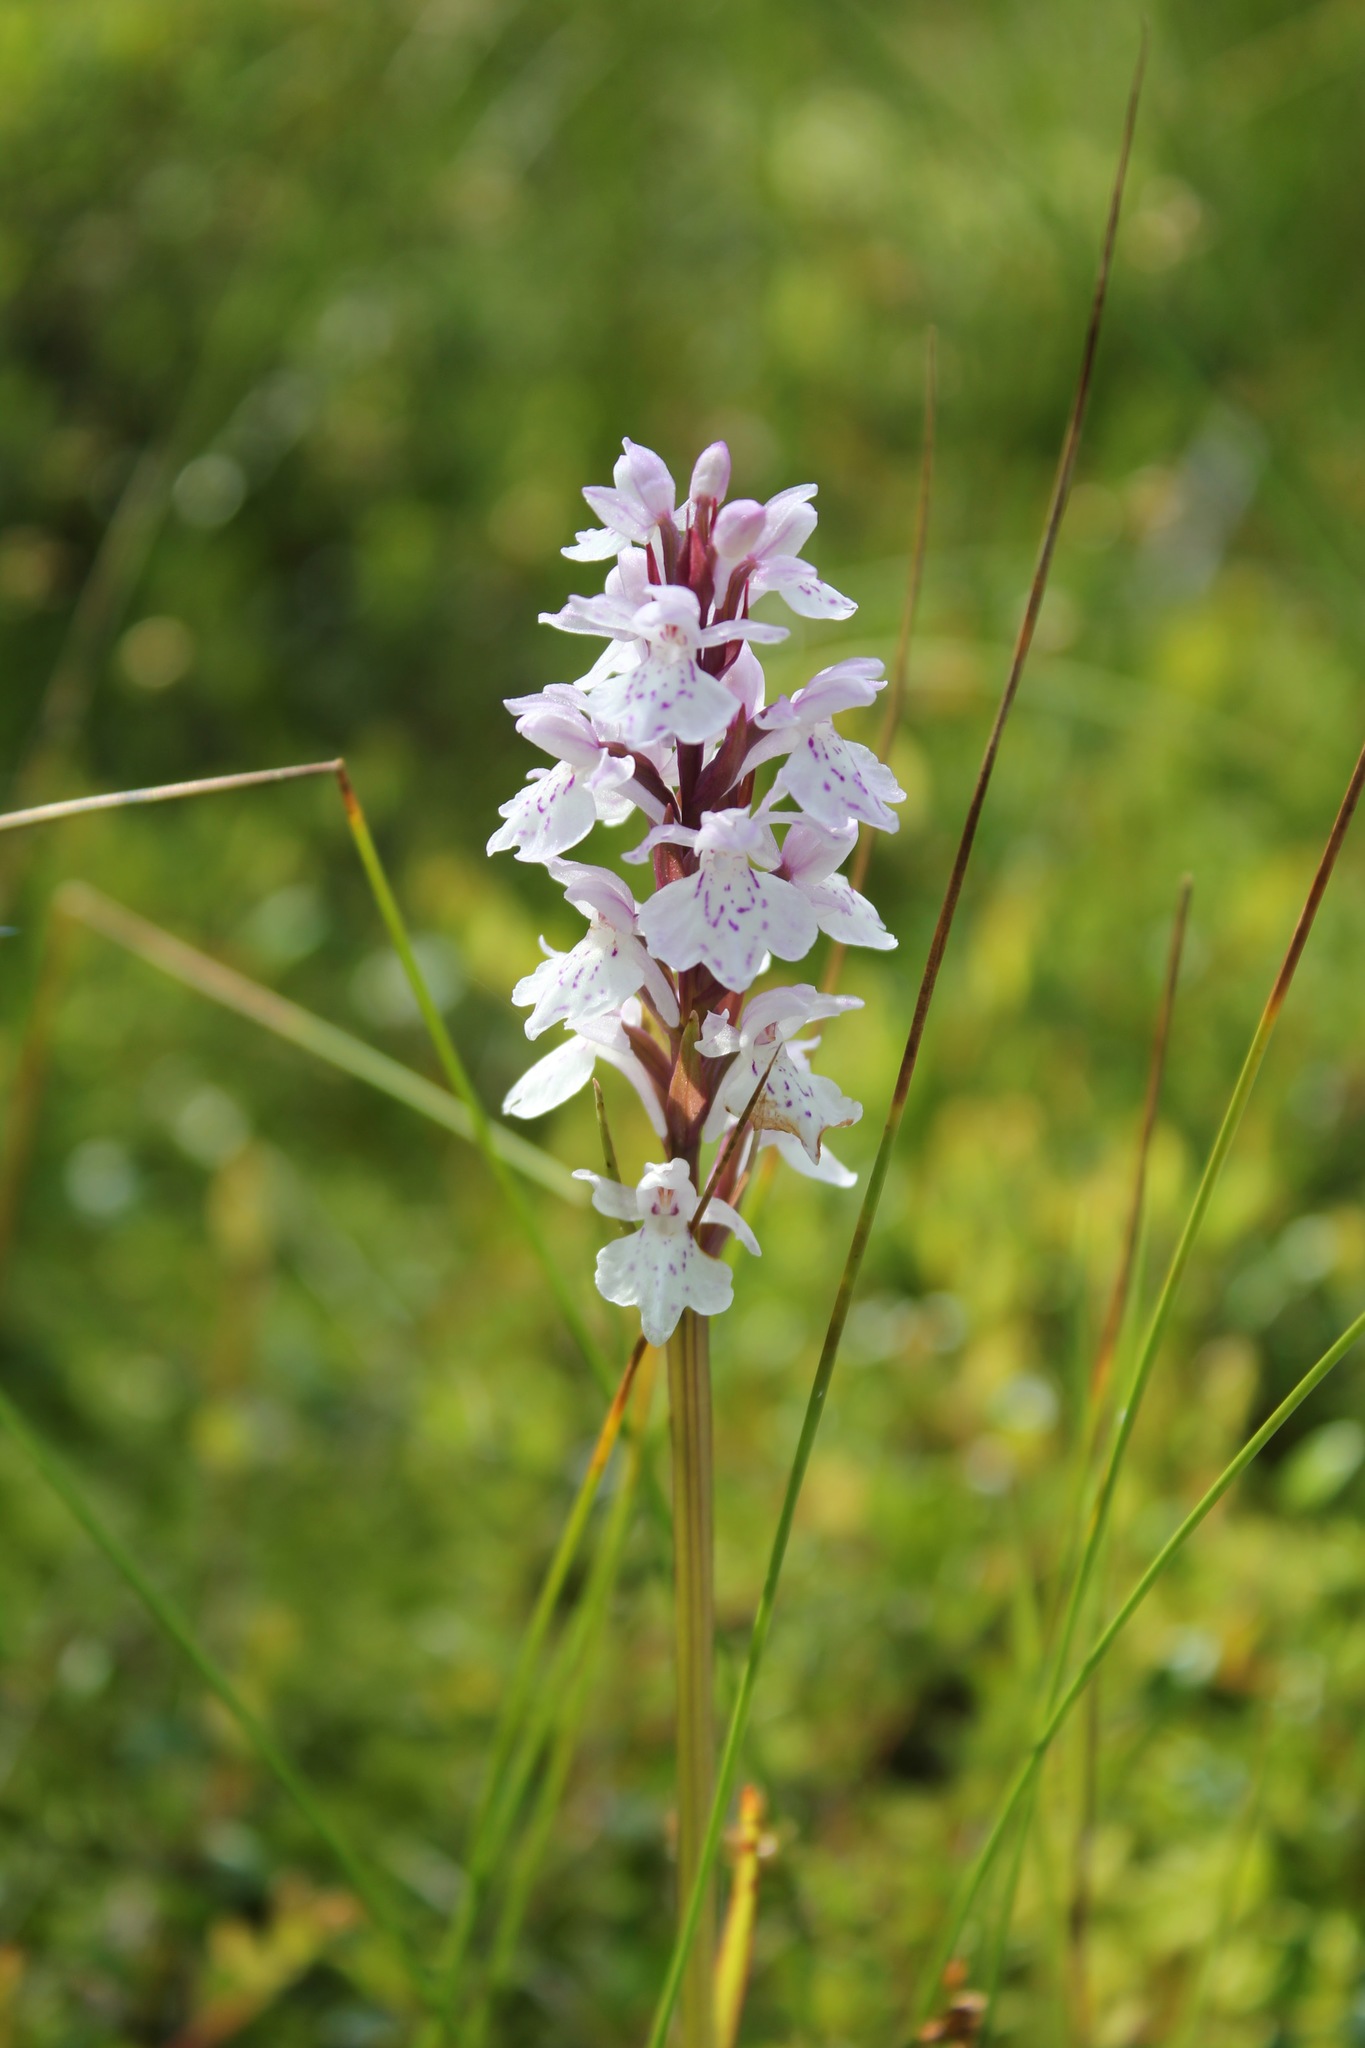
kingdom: Plantae
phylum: Tracheophyta
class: Liliopsida
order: Asparagales
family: Orchidaceae
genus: Dactylorhiza
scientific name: Dactylorhiza maculata
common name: Heath spotted-orchid
